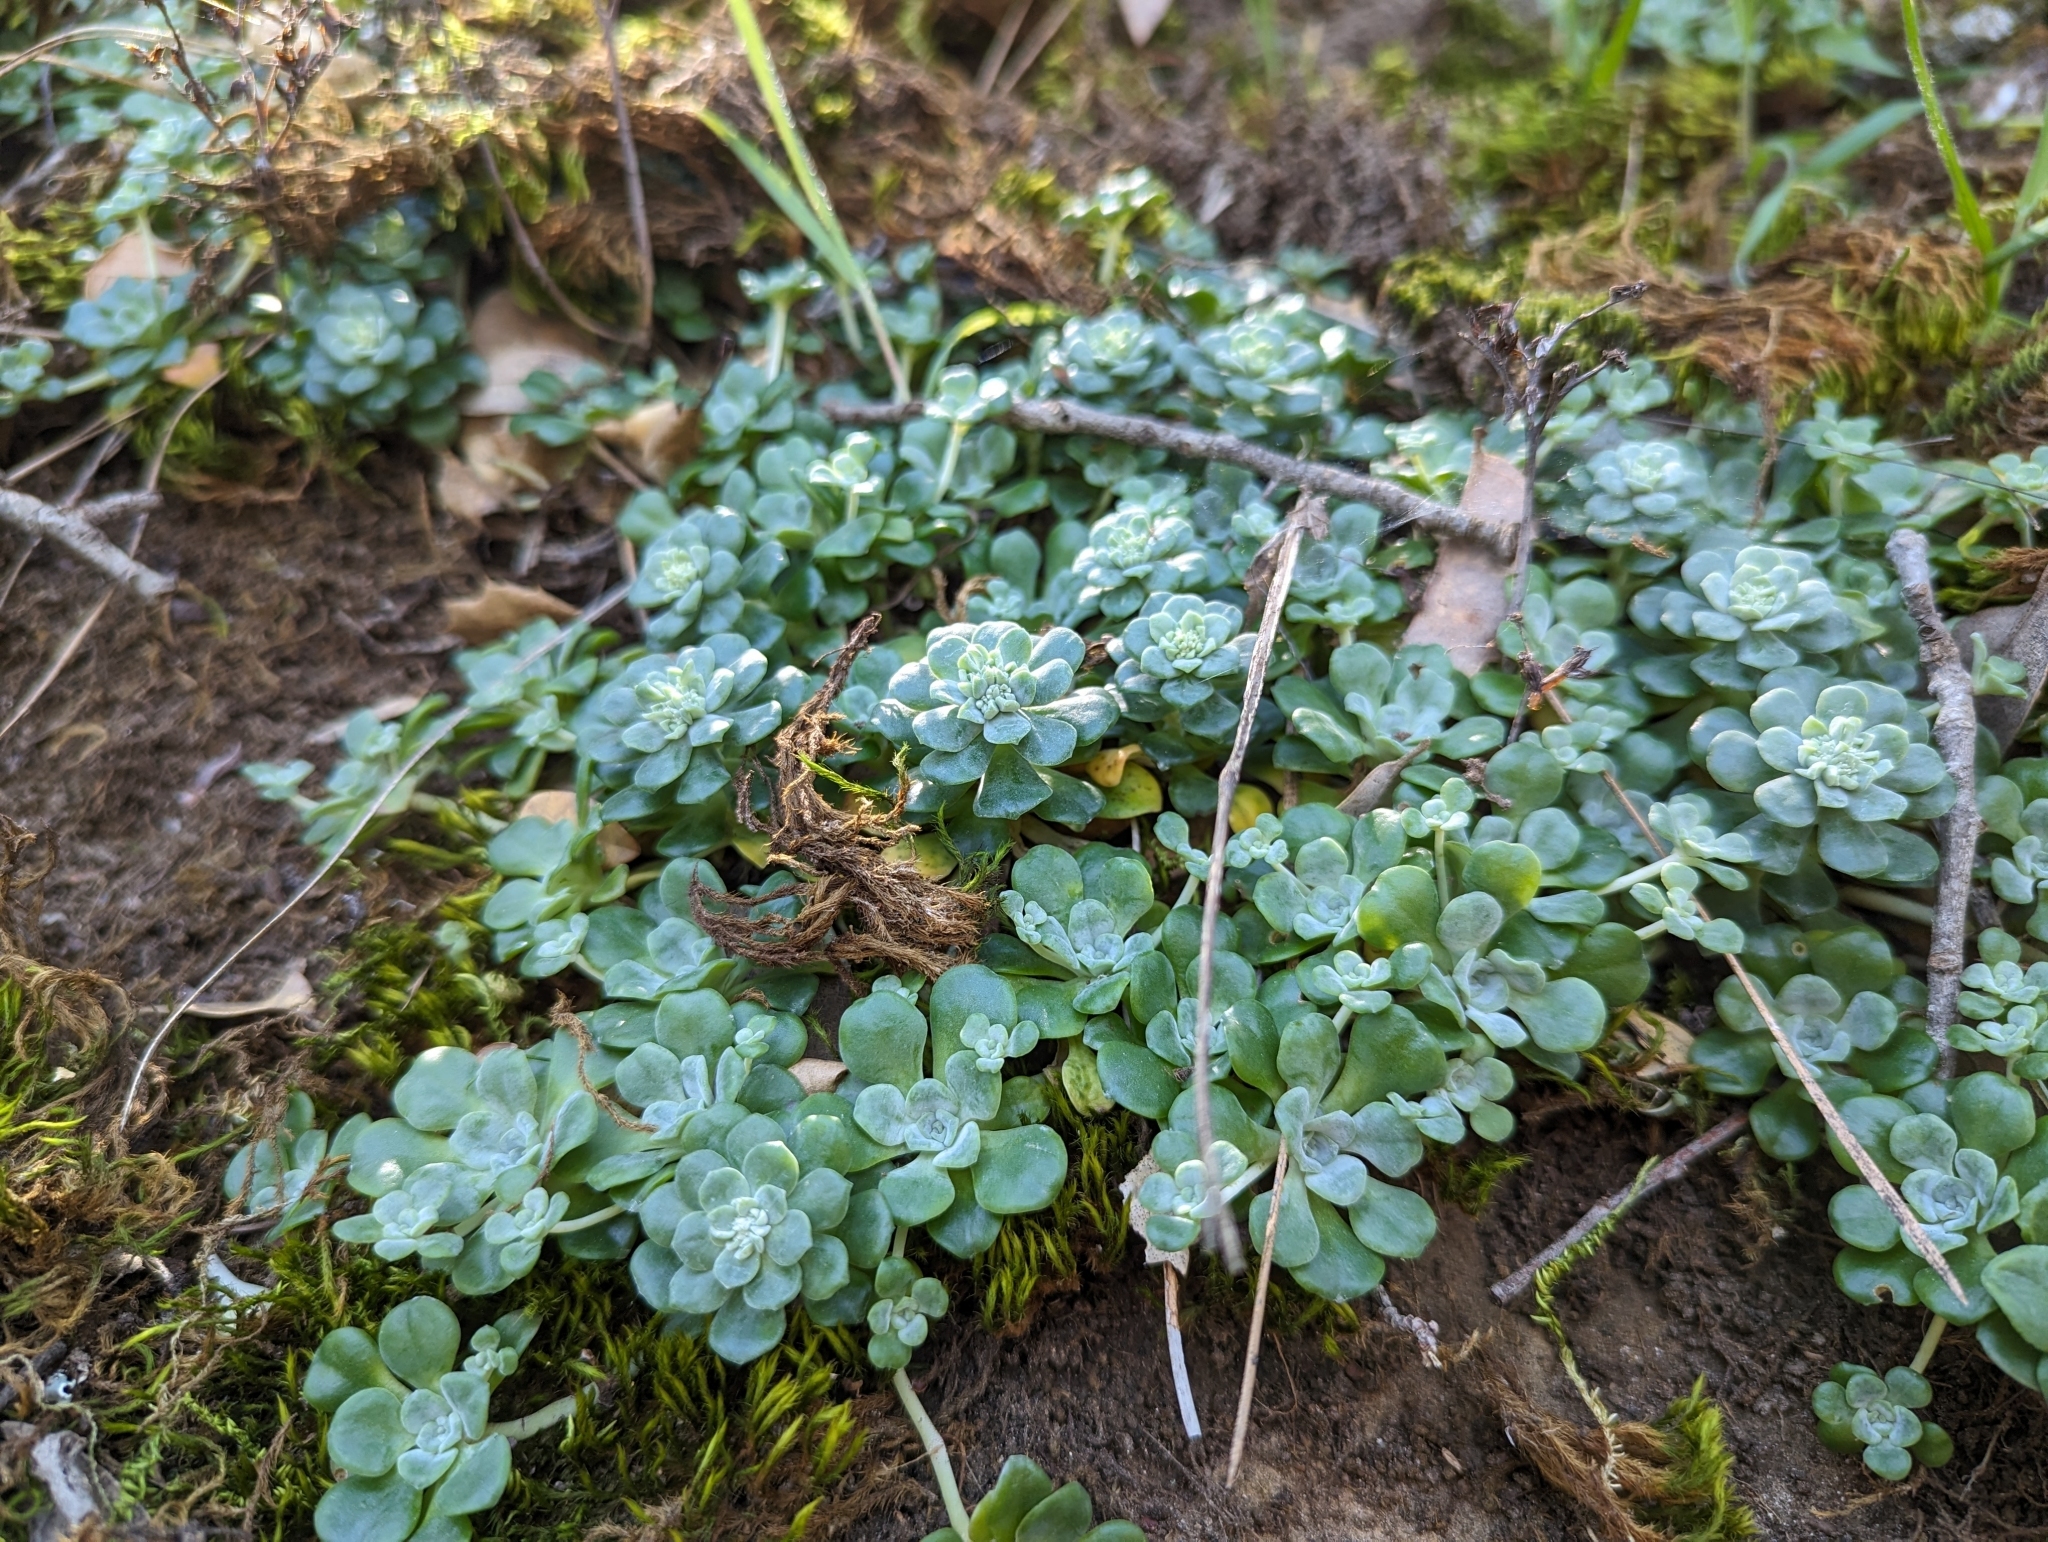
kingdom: Plantae
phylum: Tracheophyta
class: Magnoliopsida
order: Saxifragales
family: Crassulaceae
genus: Sedum
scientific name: Sedum spathulifolium
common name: Colorado stonecrop
